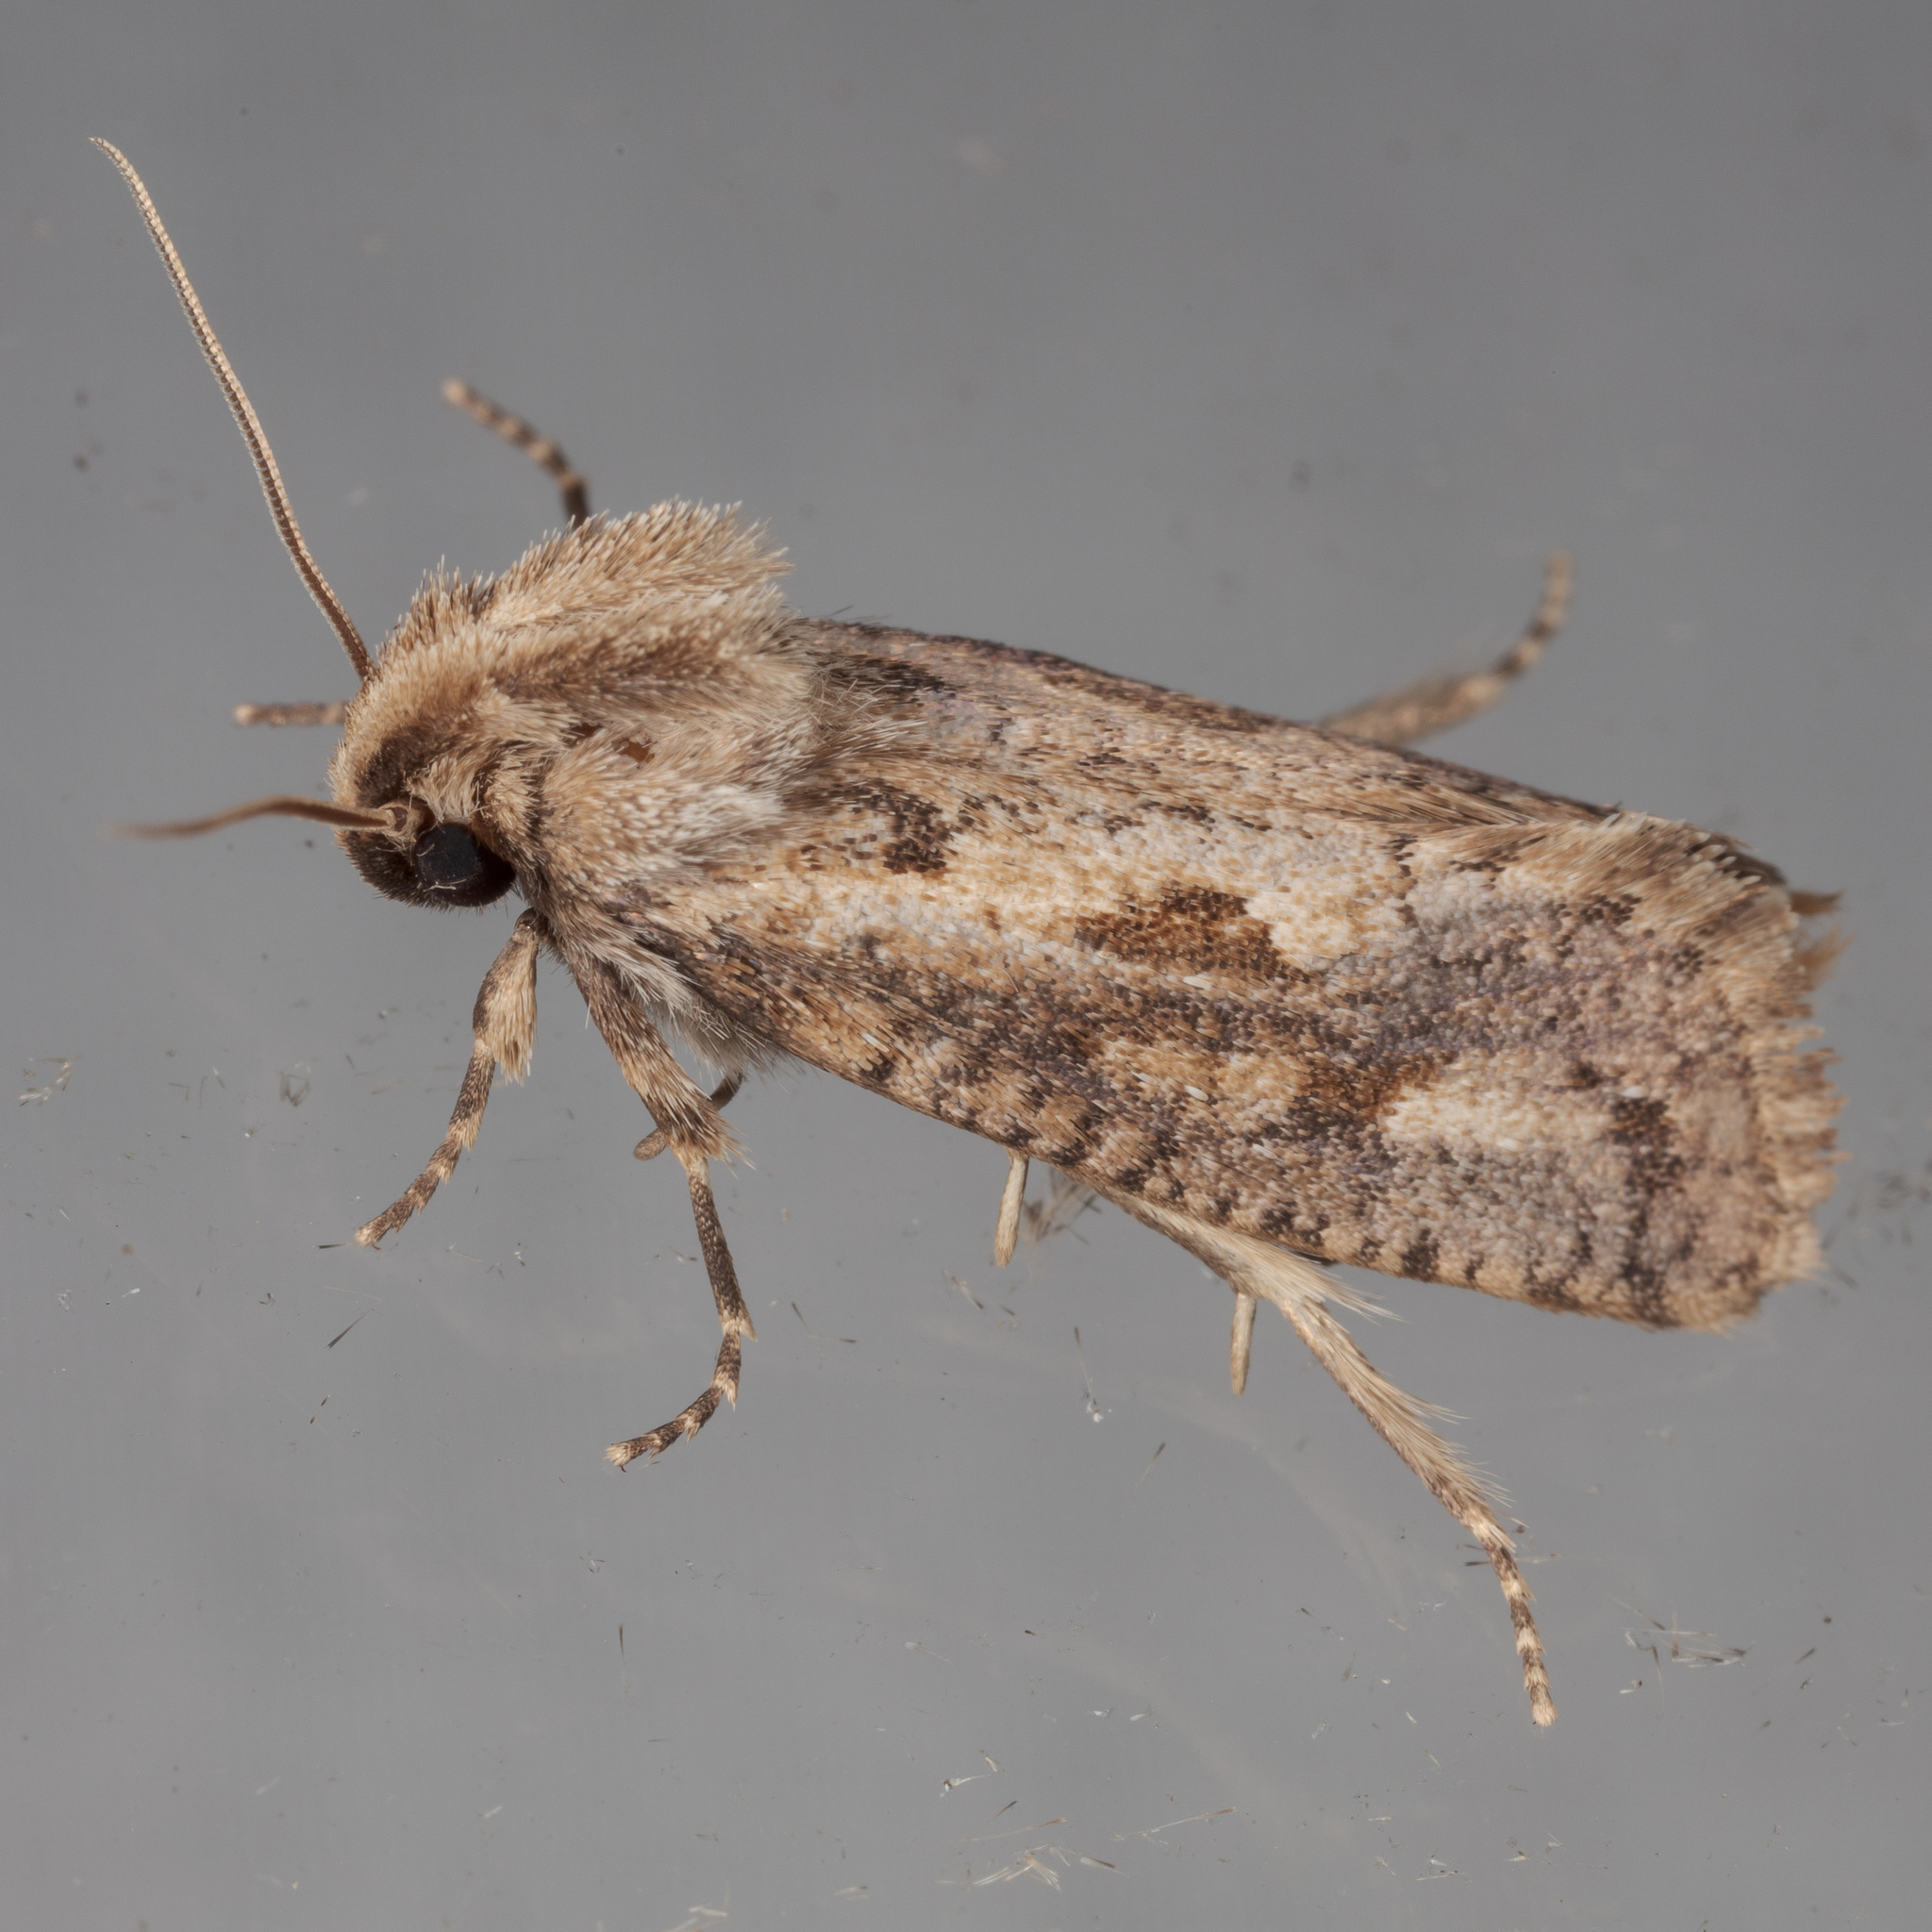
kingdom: Animalia
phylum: Arthropoda
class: Insecta
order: Lepidoptera
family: Tineidae
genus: Acrolophus
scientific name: Acrolophus popeanella
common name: Clemens' grass tubeworm moth
